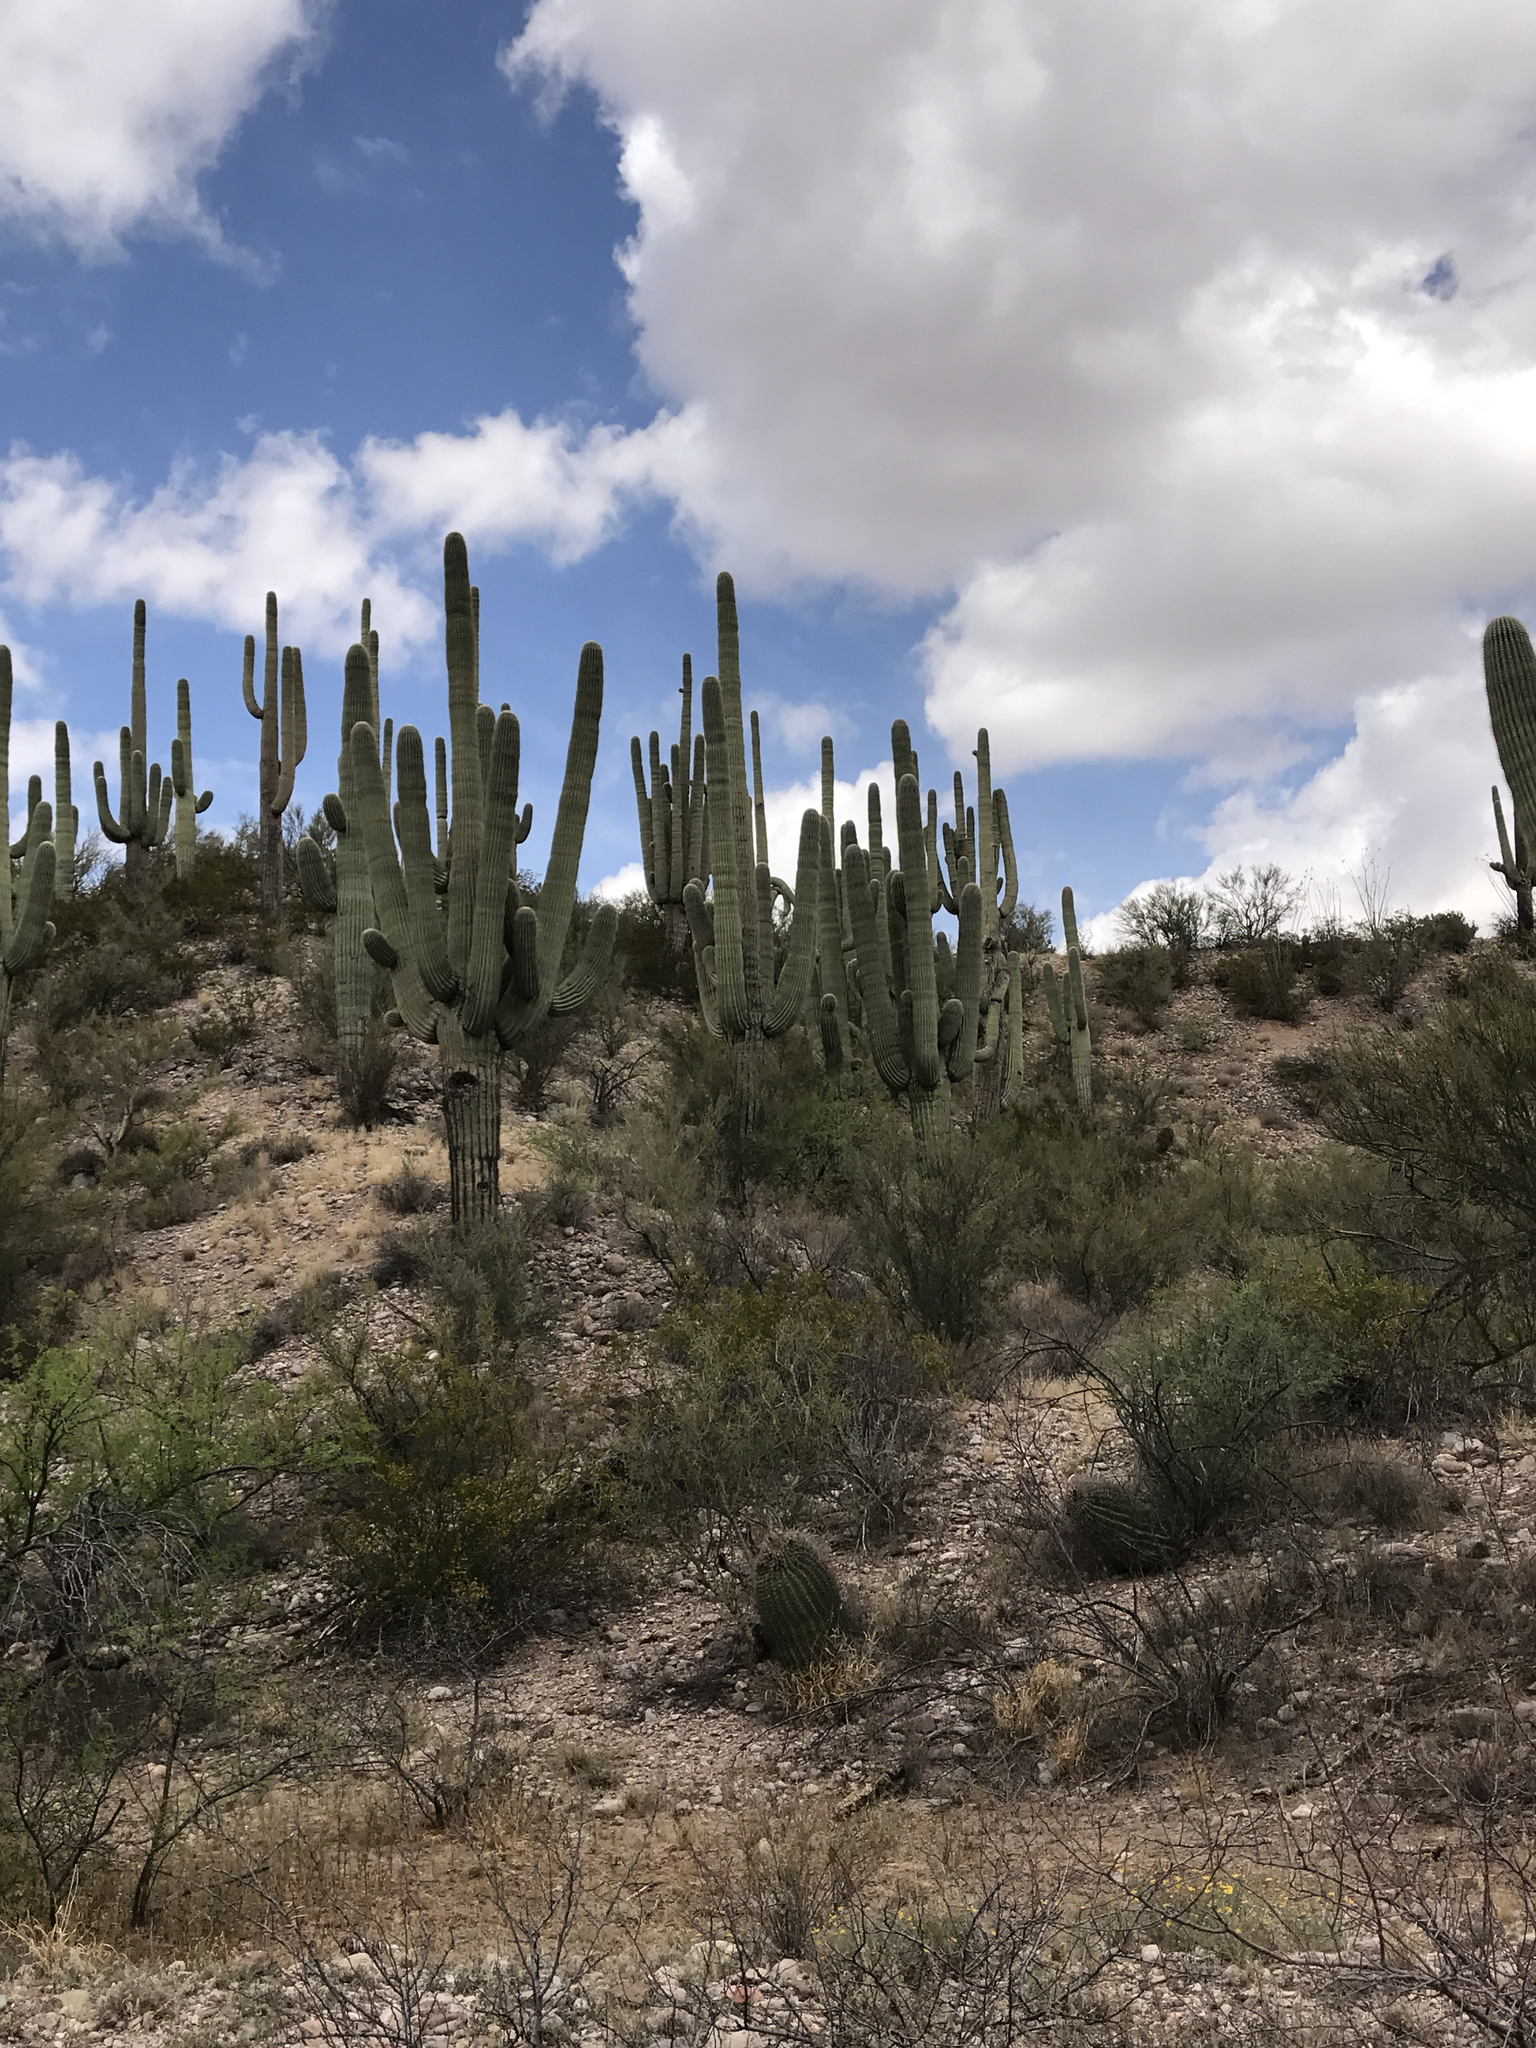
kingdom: Plantae
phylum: Tracheophyta
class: Magnoliopsida
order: Caryophyllales
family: Cactaceae
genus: Carnegiea
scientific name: Carnegiea gigantea
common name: Saguaro
